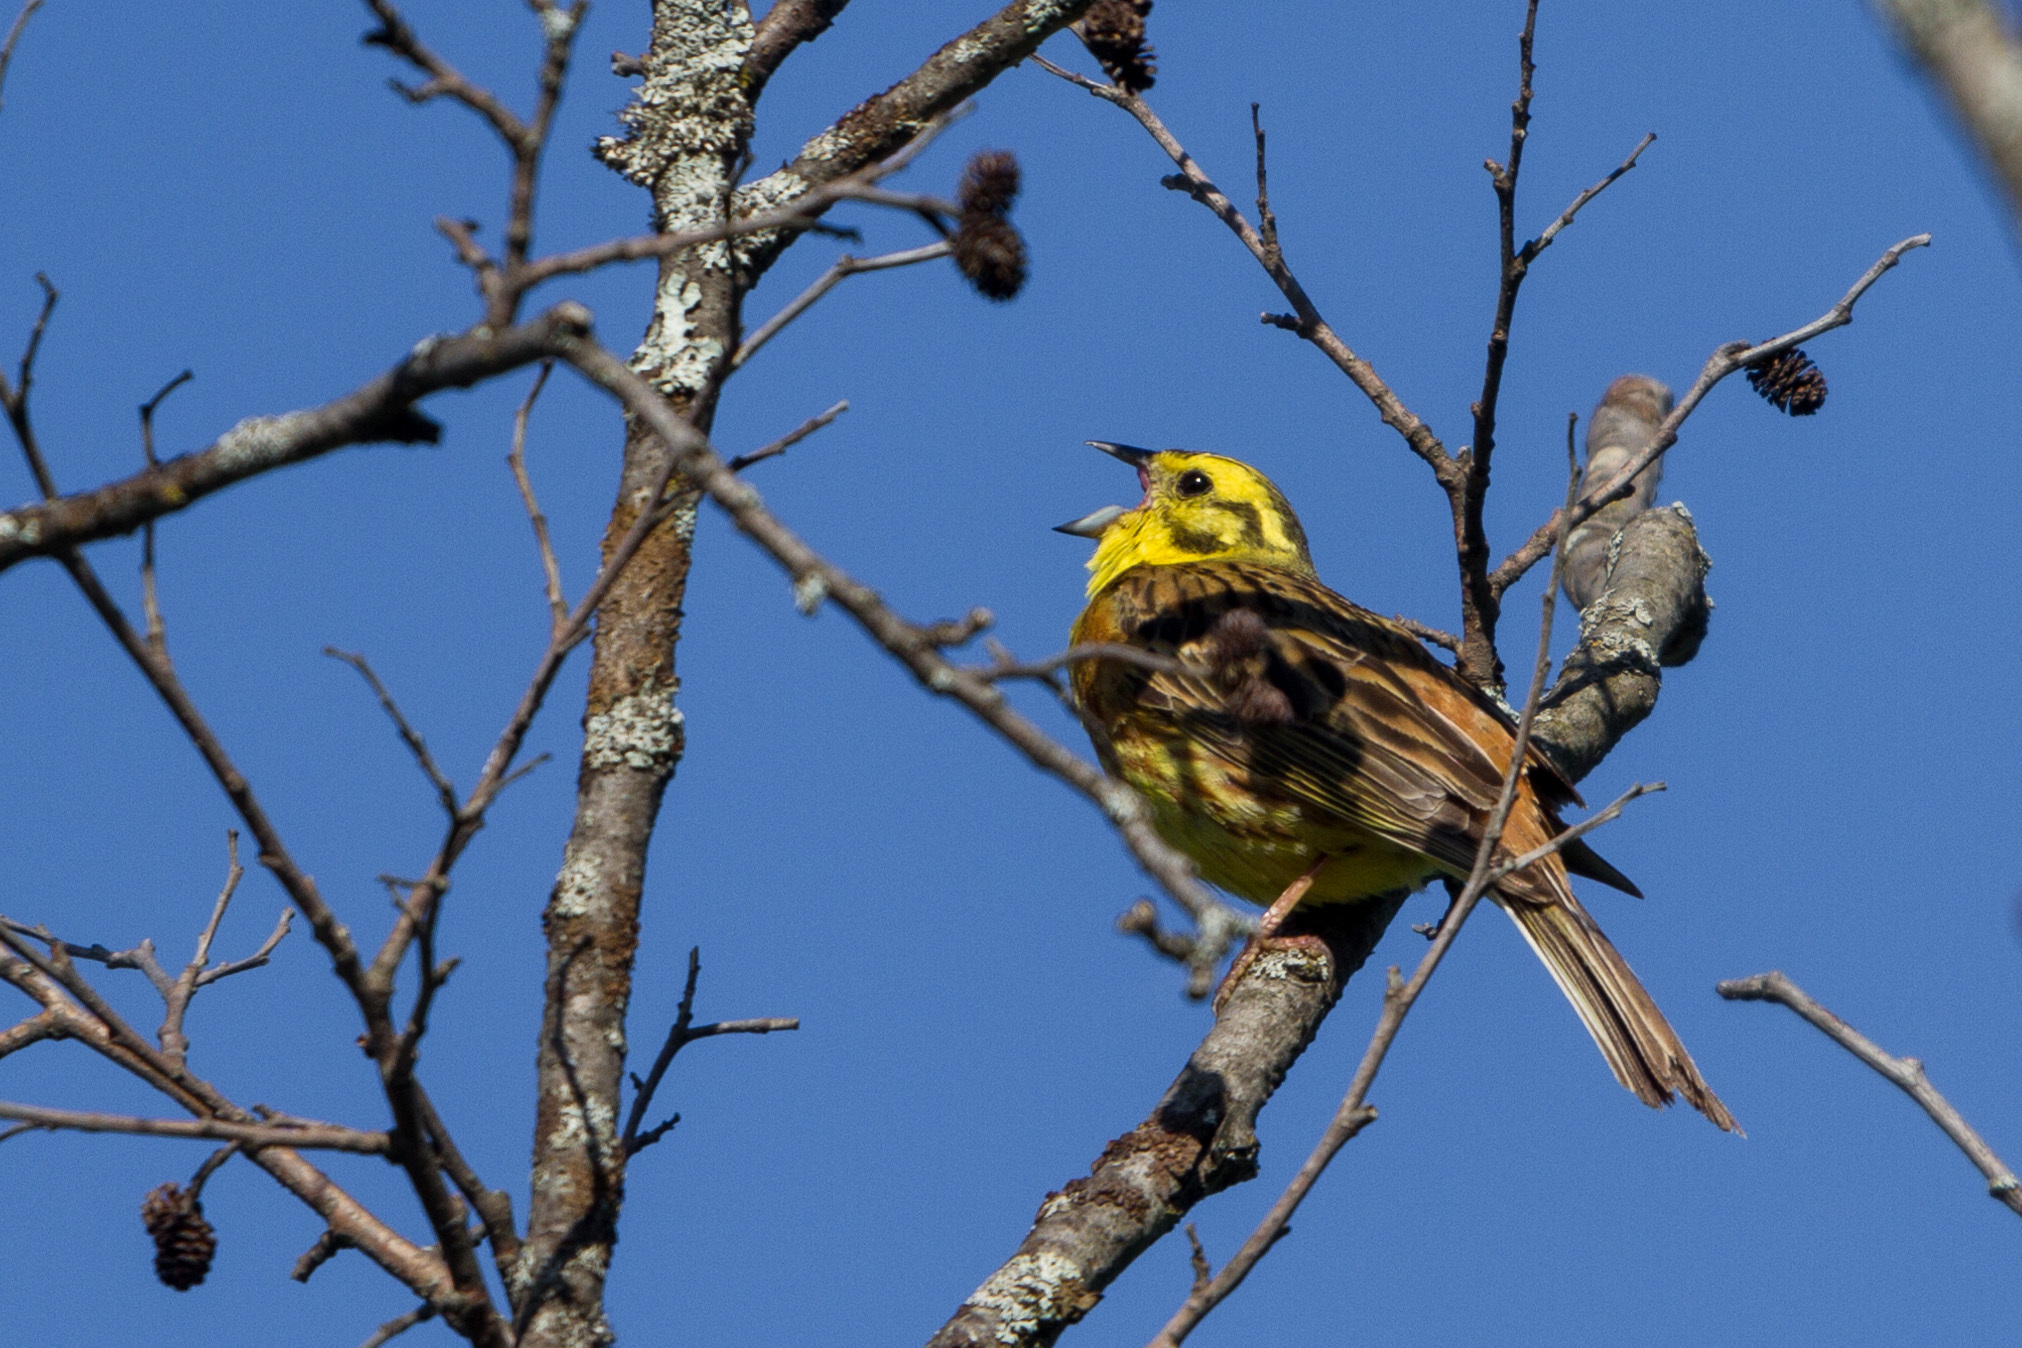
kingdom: Animalia
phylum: Chordata
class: Aves
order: Passeriformes
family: Emberizidae
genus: Emberiza
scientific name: Emberiza citrinella
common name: Yellowhammer
